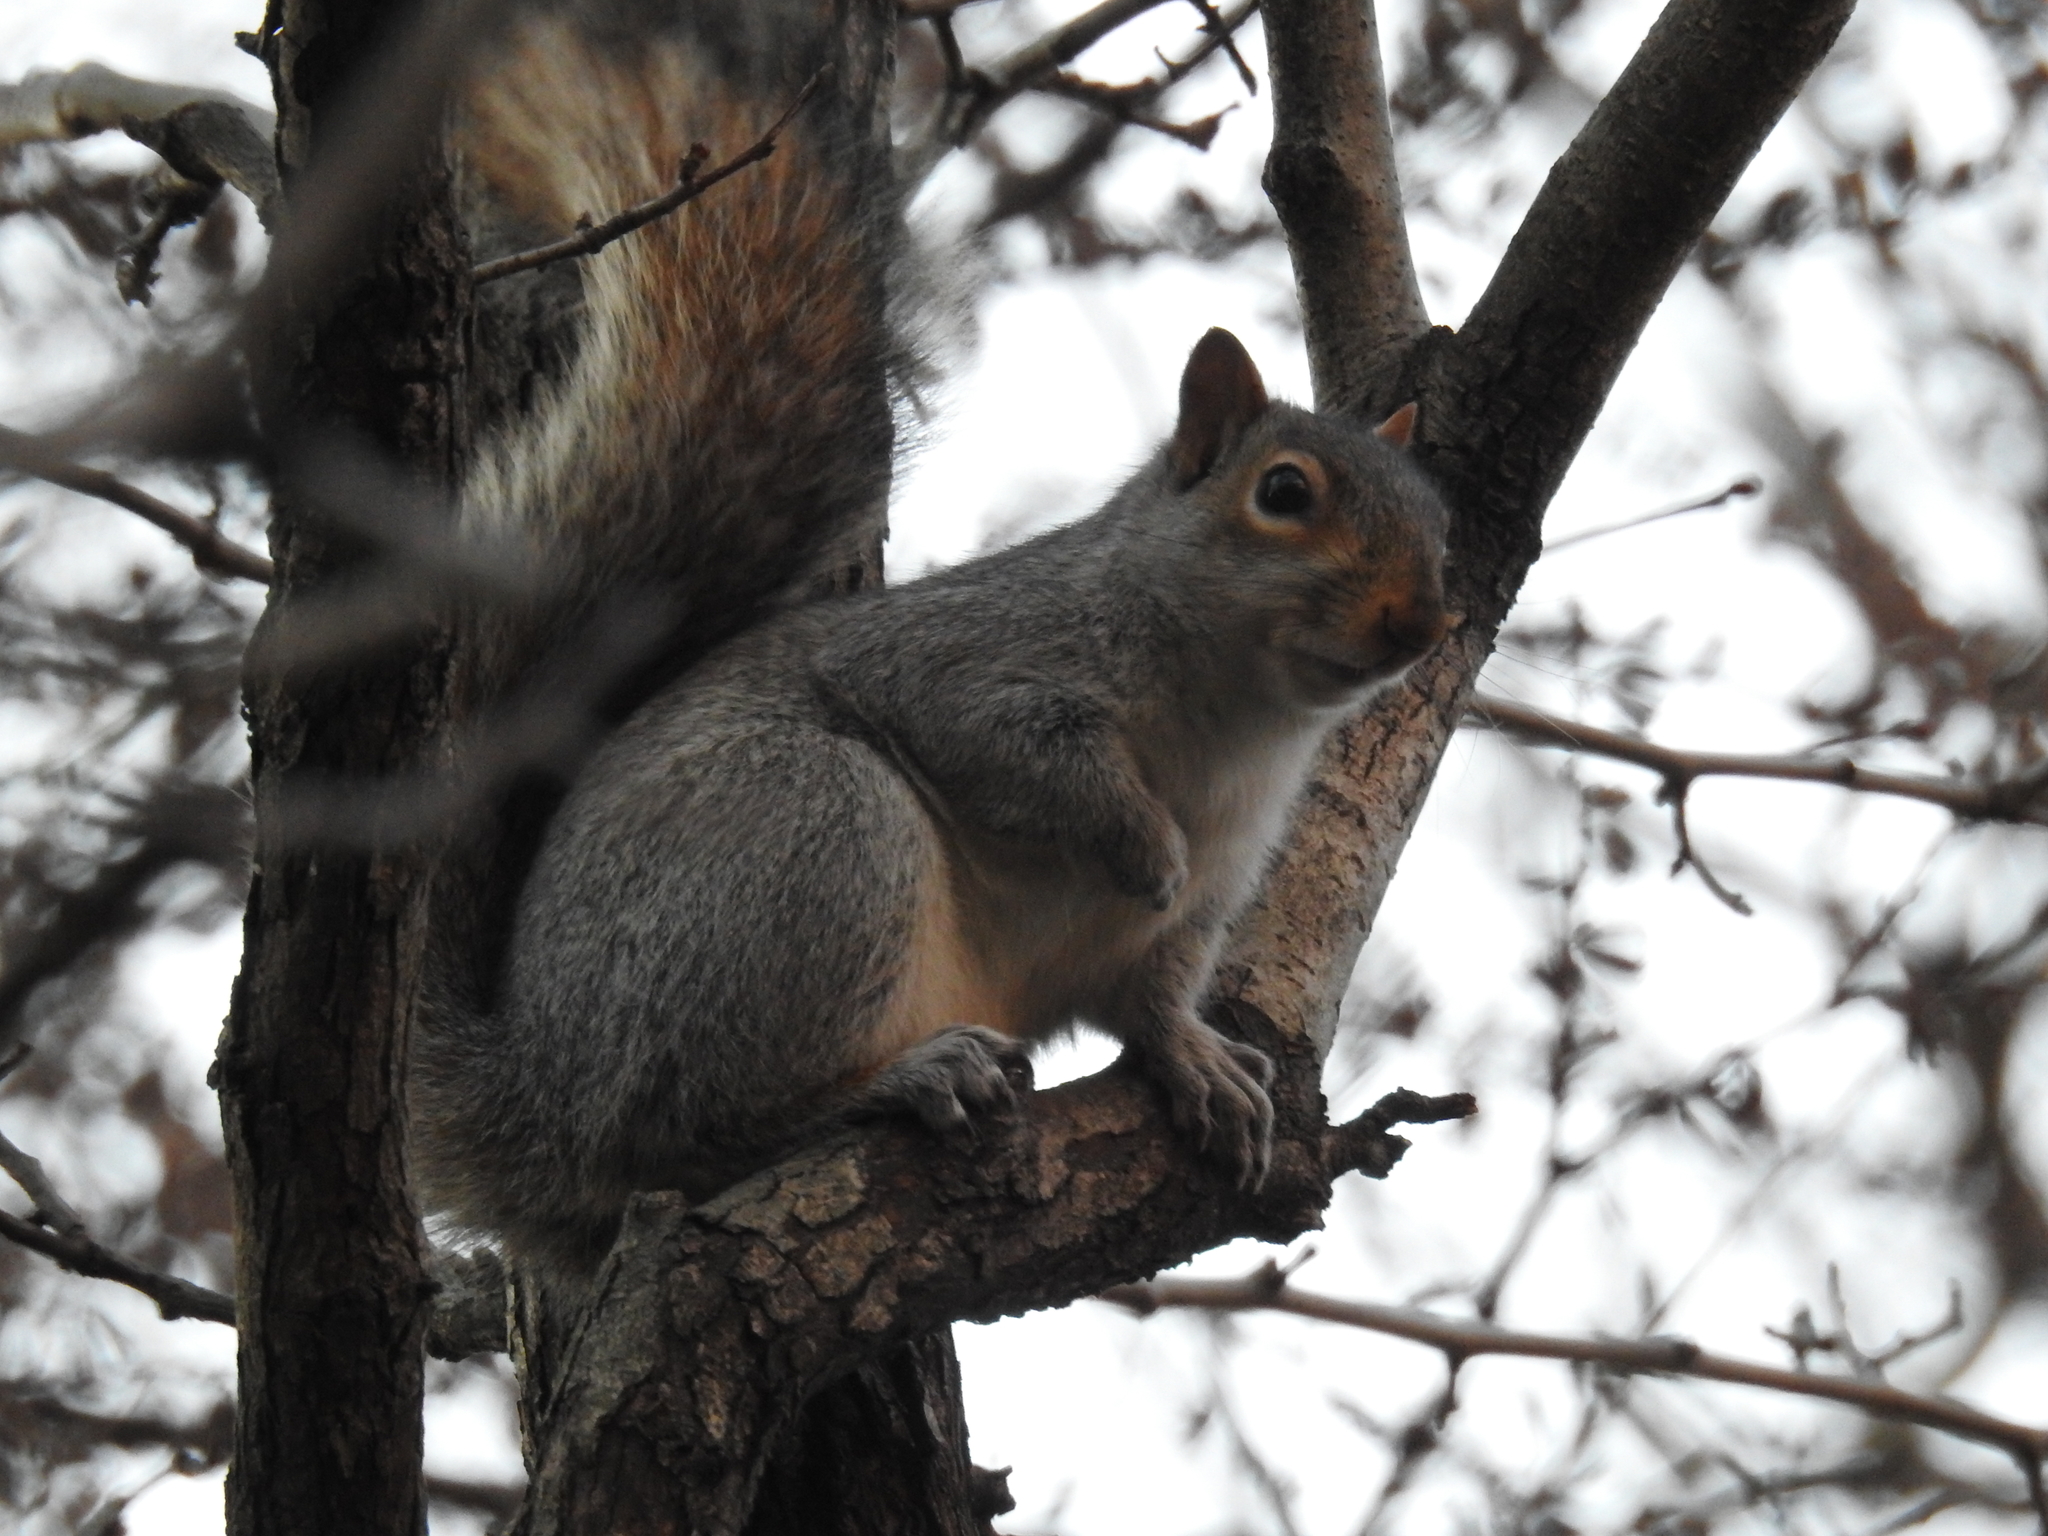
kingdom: Animalia
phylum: Chordata
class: Mammalia
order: Rodentia
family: Sciuridae
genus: Sciurus
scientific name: Sciurus carolinensis
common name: Eastern gray squirrel
